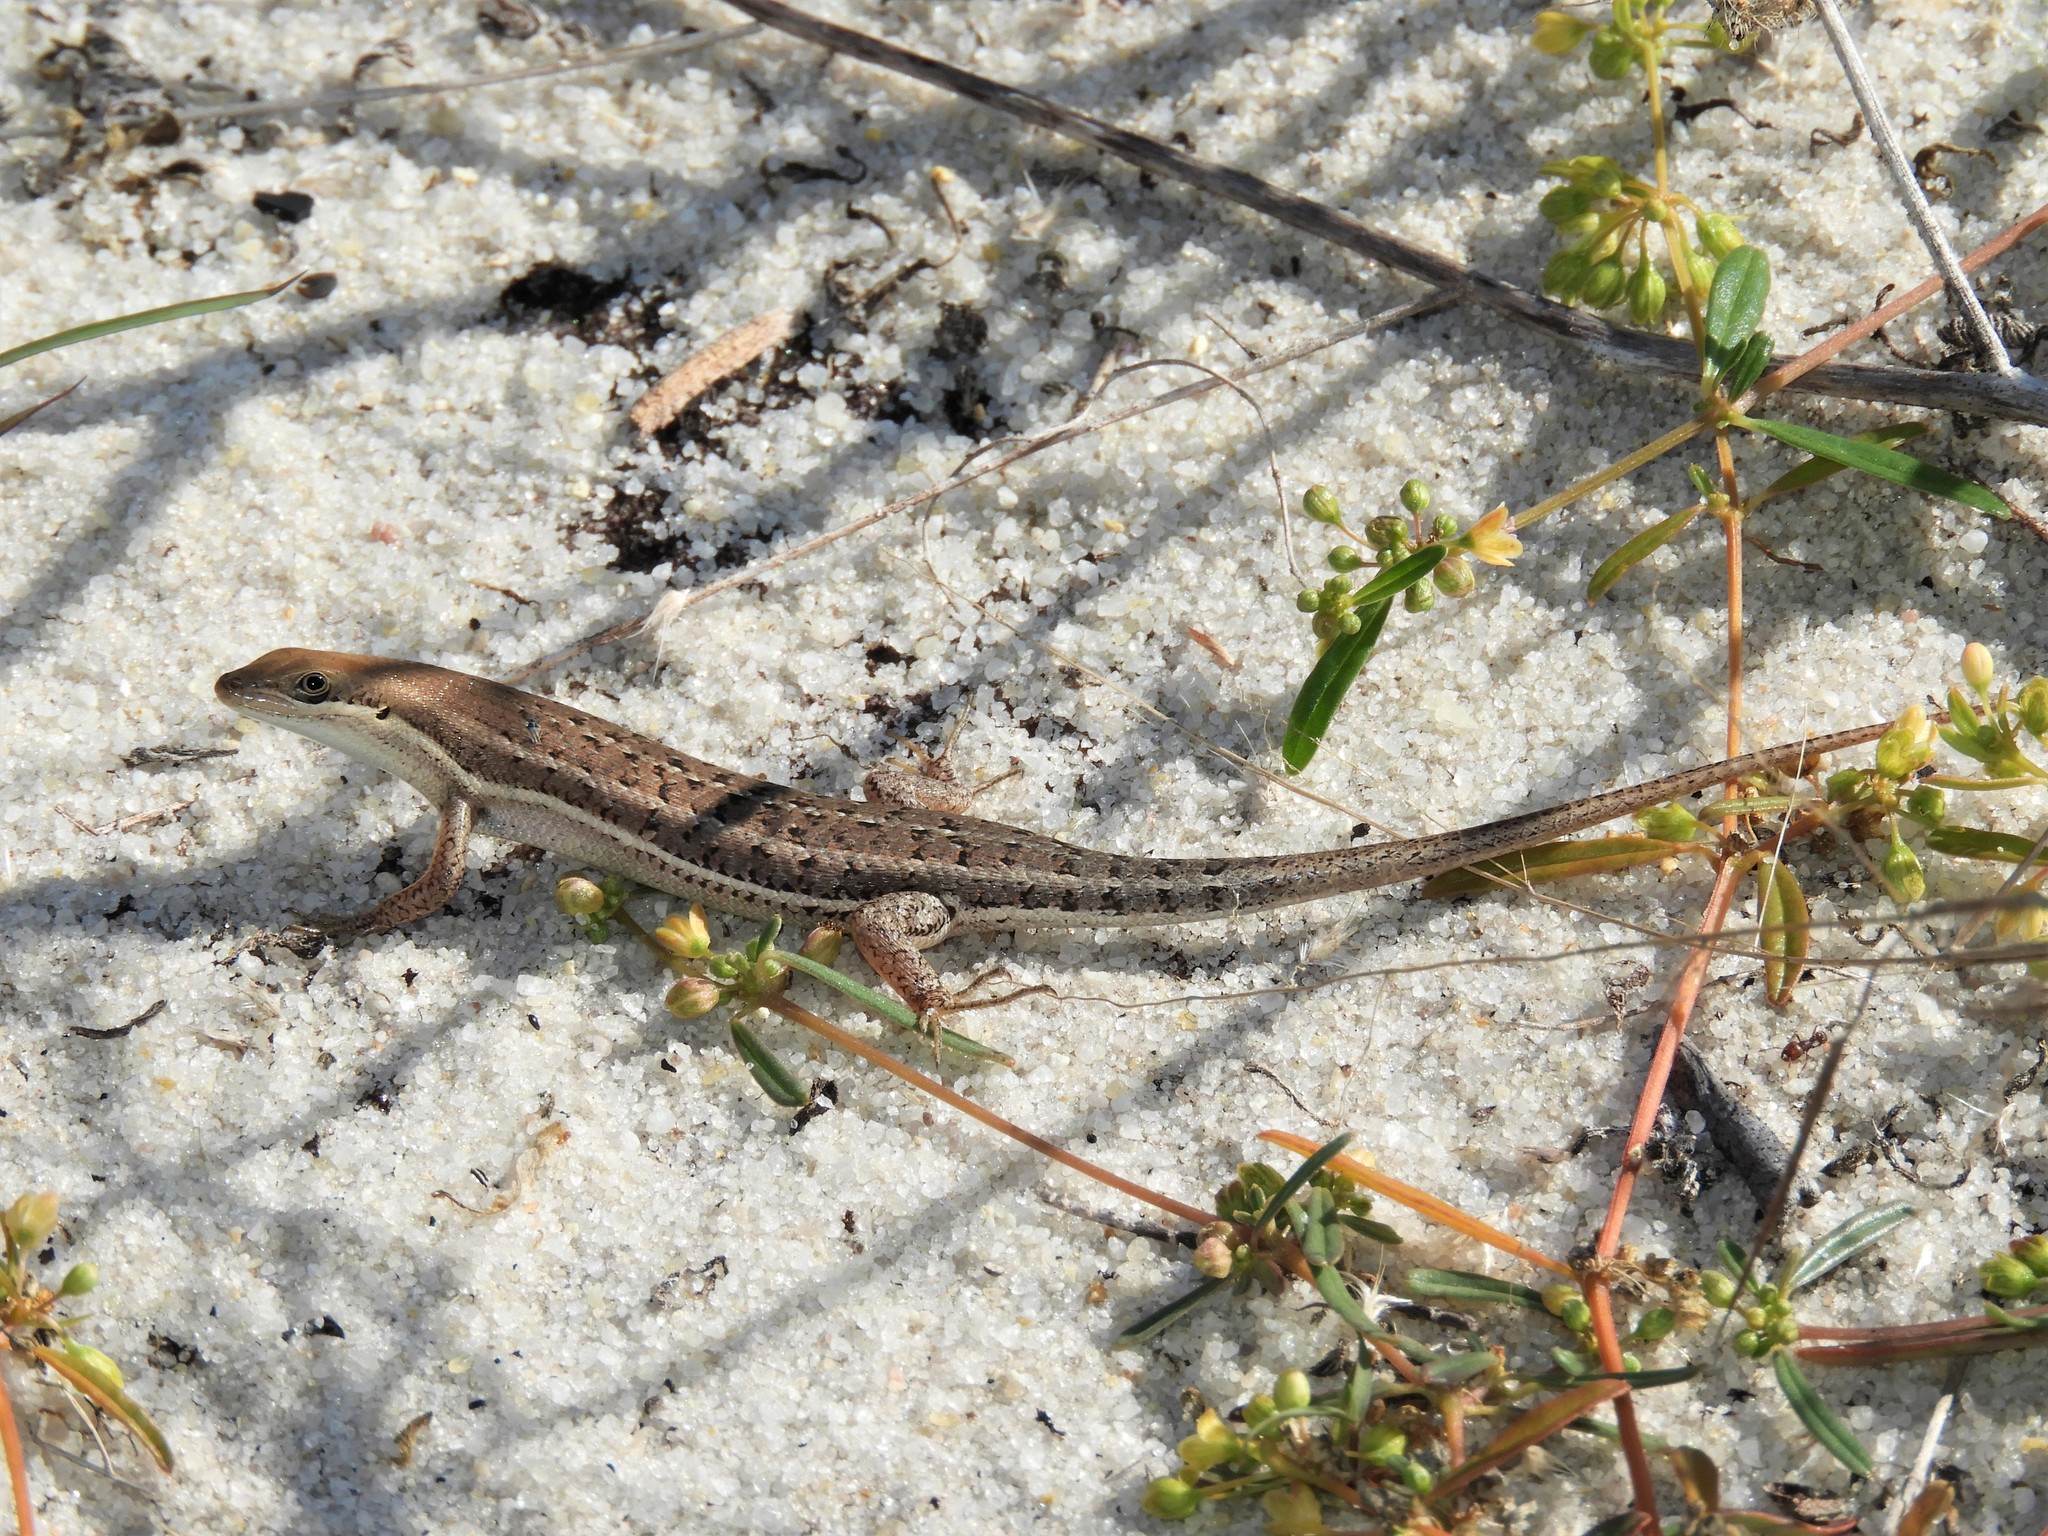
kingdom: Animalia
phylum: Chordata
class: Squamata
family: Scincidae
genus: Trachylepis
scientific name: Trachylepis varia
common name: Eastern variable skink
